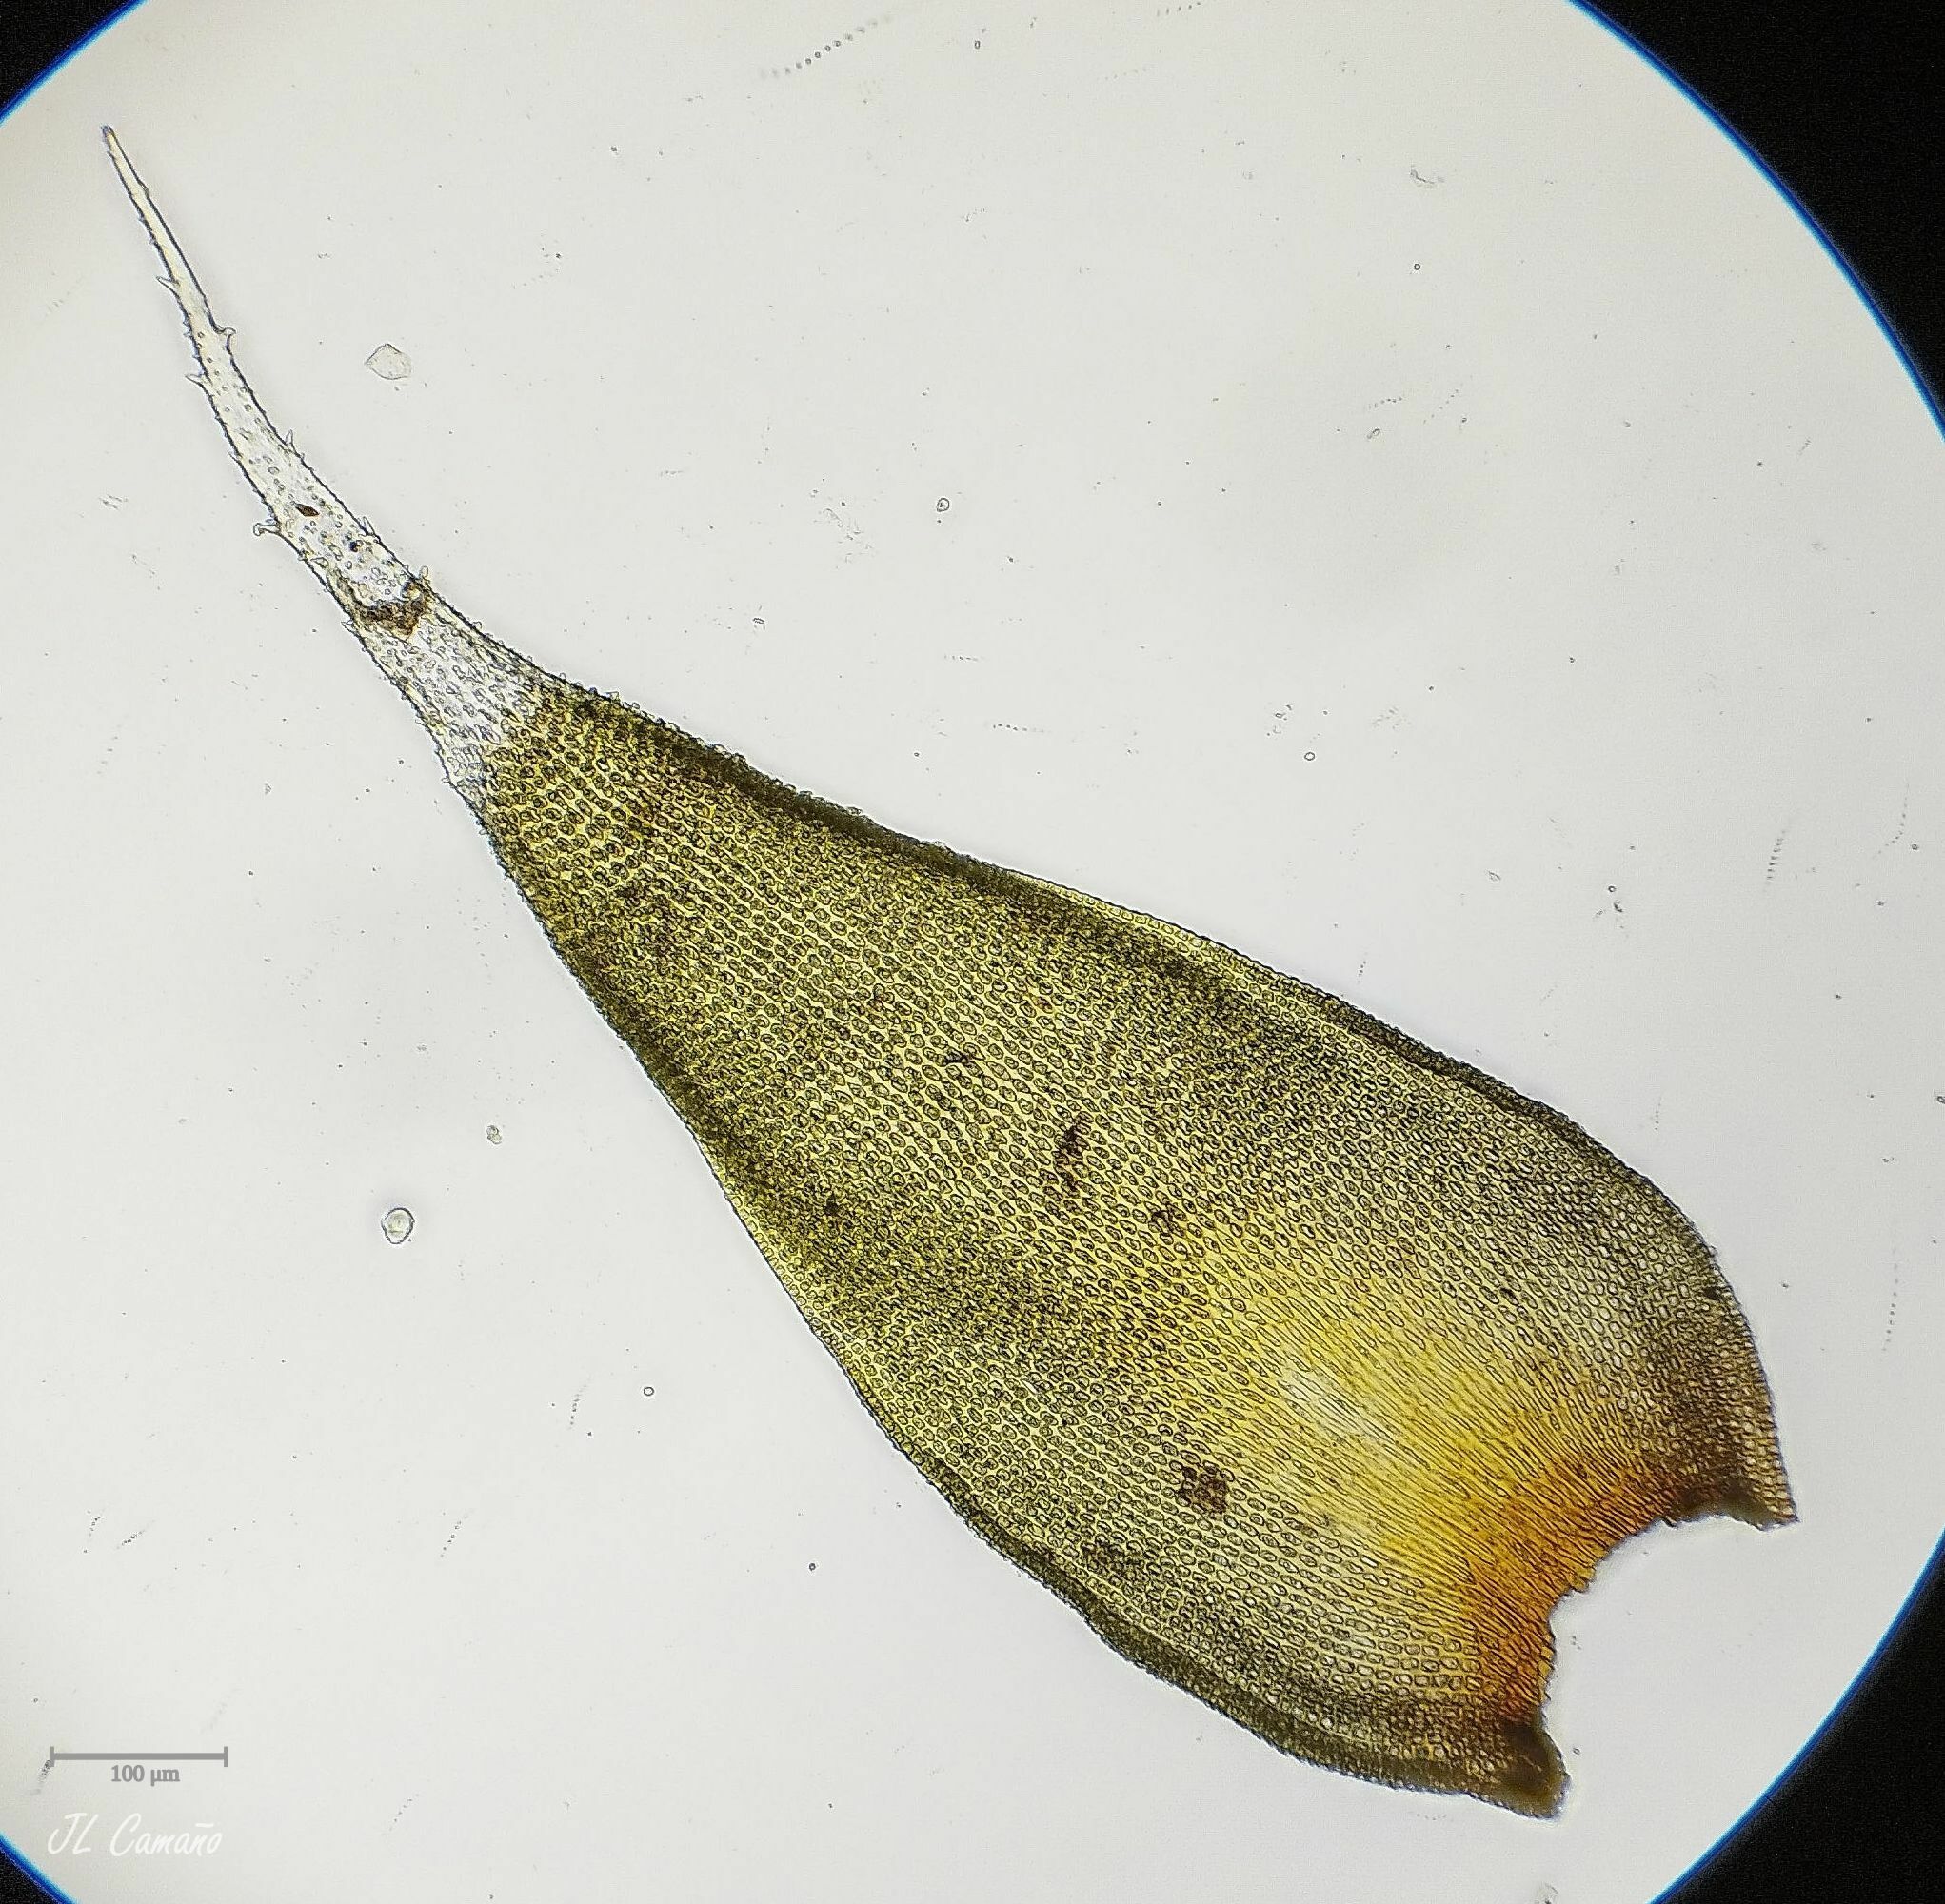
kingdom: Plantae
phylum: Bryophyta
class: Bryopsida
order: Hedwigiales
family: Hedwigiaceae
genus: Hedwigia
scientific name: Hedwigia stellata
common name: Starry hoar-moss
